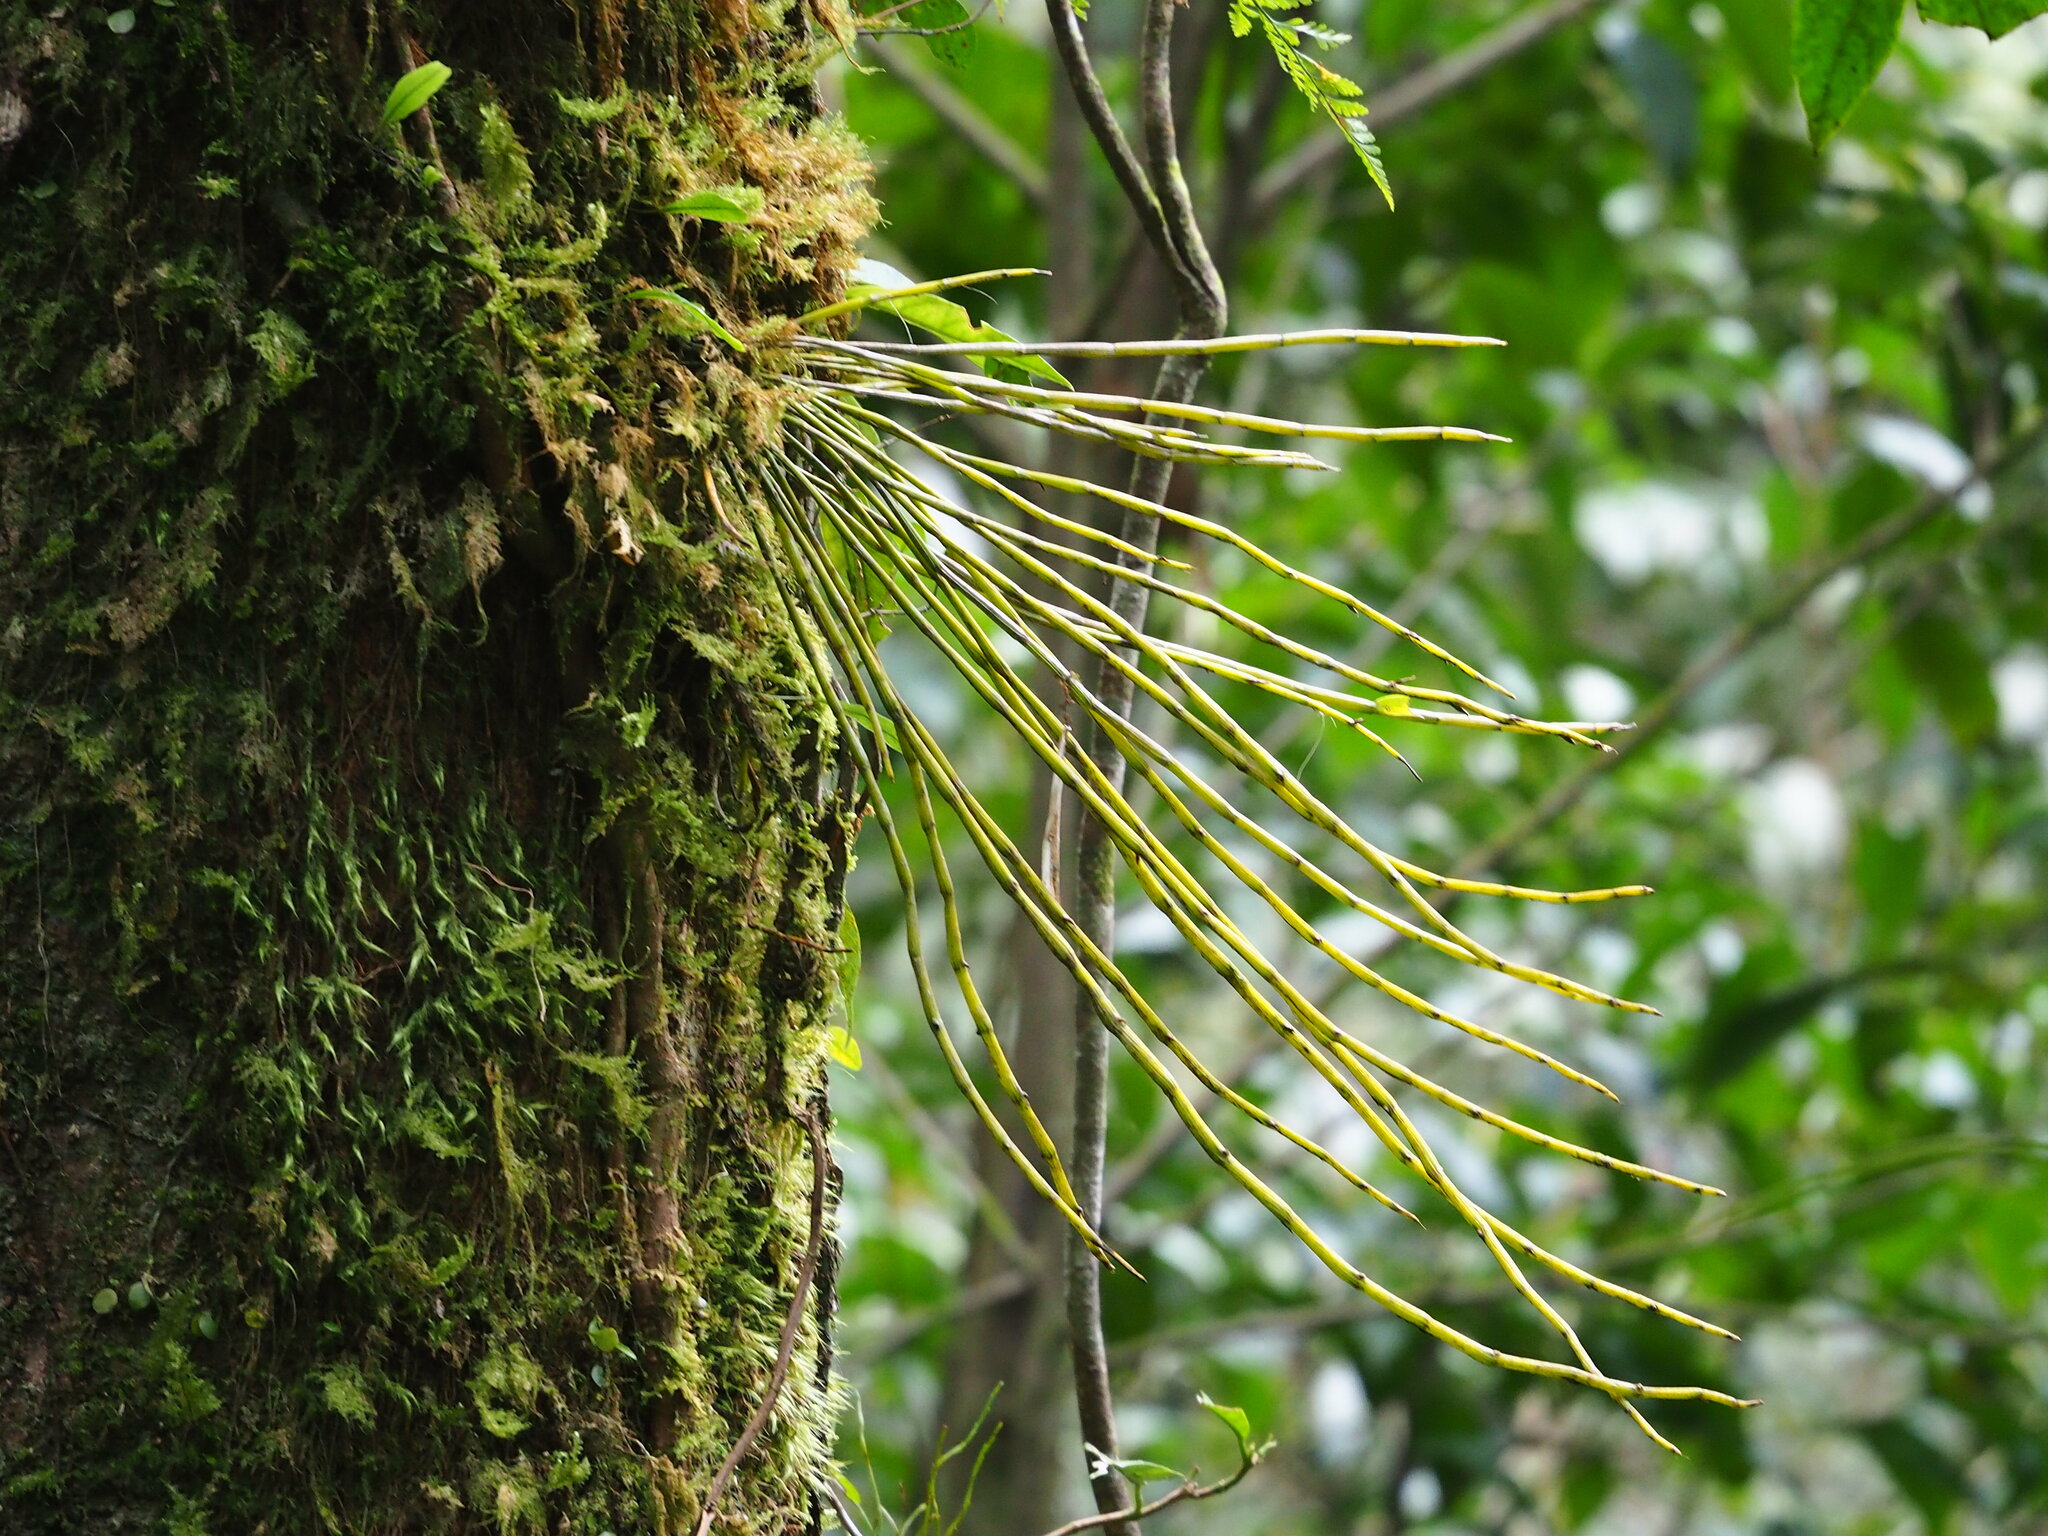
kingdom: Plantae
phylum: Tracheophyta
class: Liliopsida
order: Asparagales
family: Orchidaceae
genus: Dendrobium
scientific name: Dendrobium moniliforme
